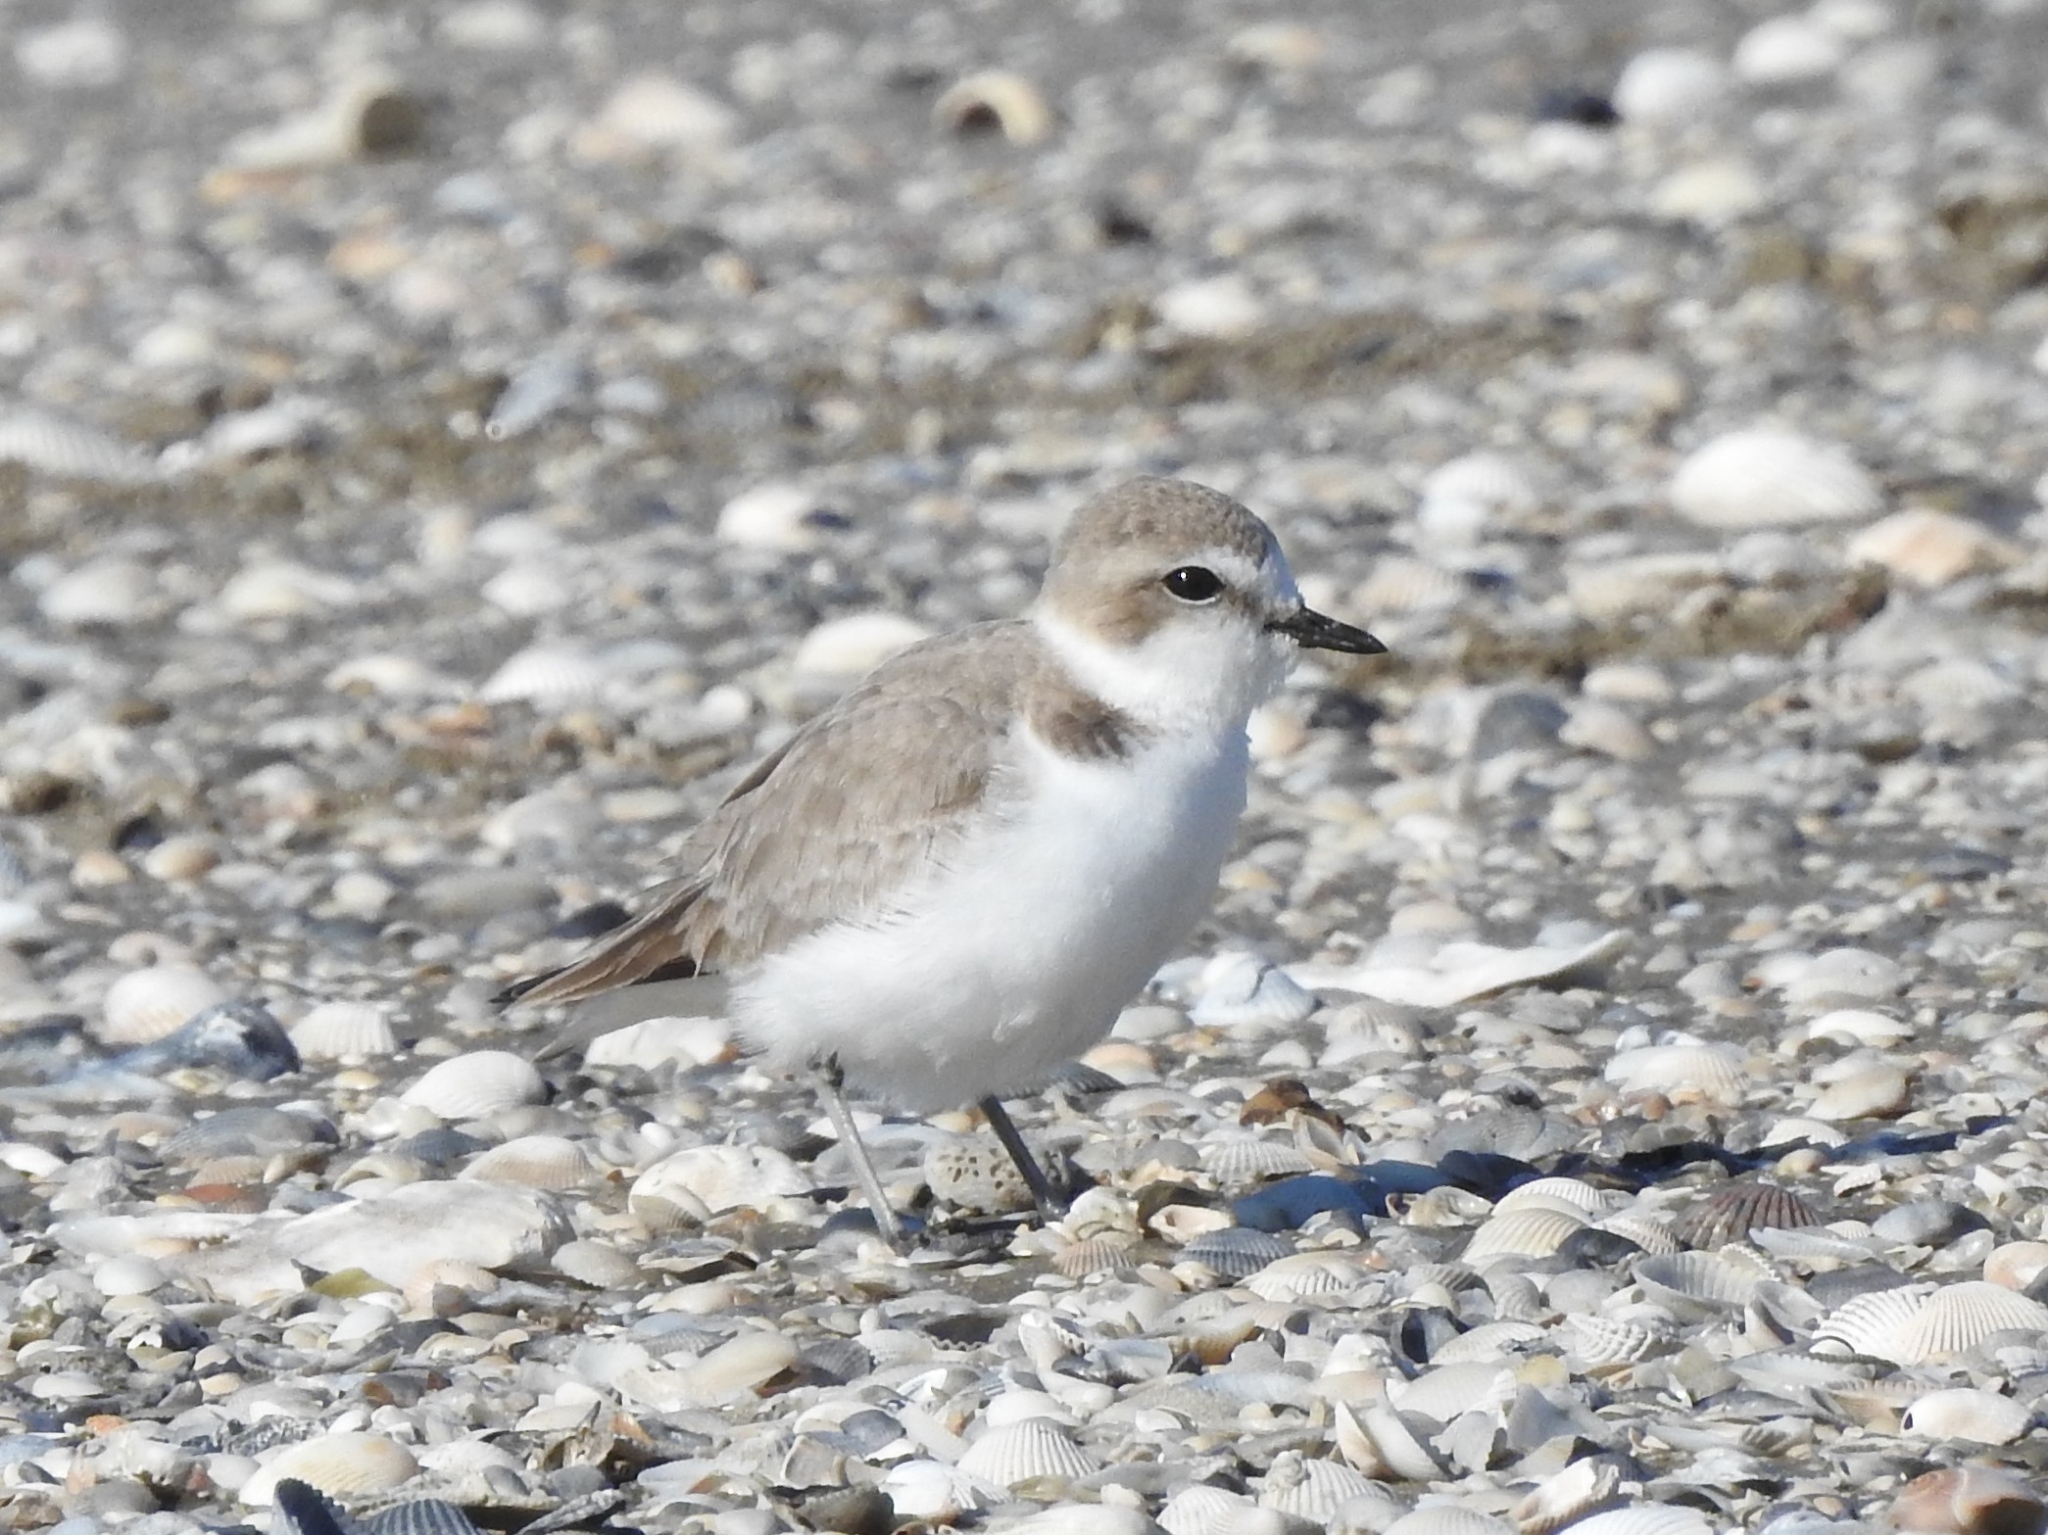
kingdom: Animalia
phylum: Chordata
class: Aves
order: Charadriiformes
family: Charadriidae
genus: Anarhynchus
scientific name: Anarhynchus
